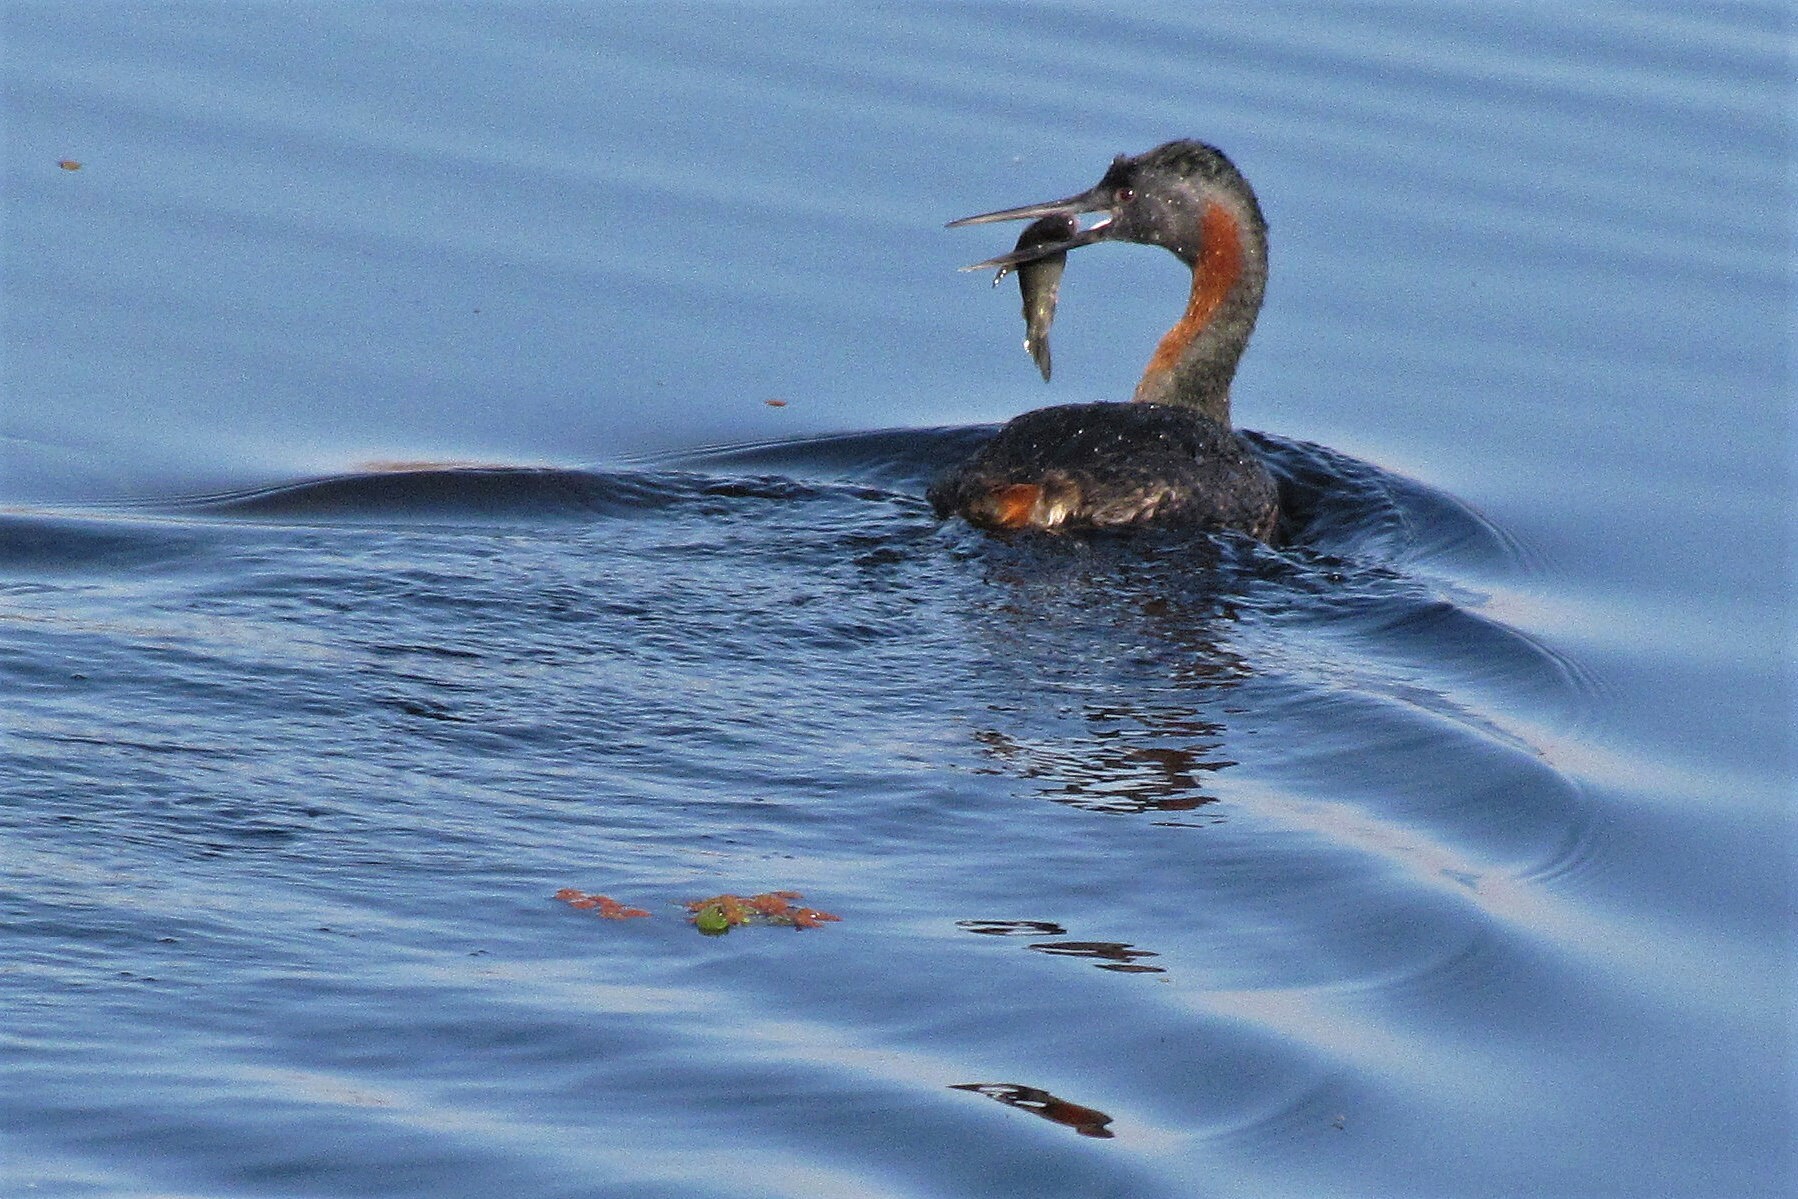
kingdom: Animalia
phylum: Chordata
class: Aves
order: Podicipediformes
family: Podicipedidae
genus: Podiceps
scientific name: Podiceps major
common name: Great grebe
